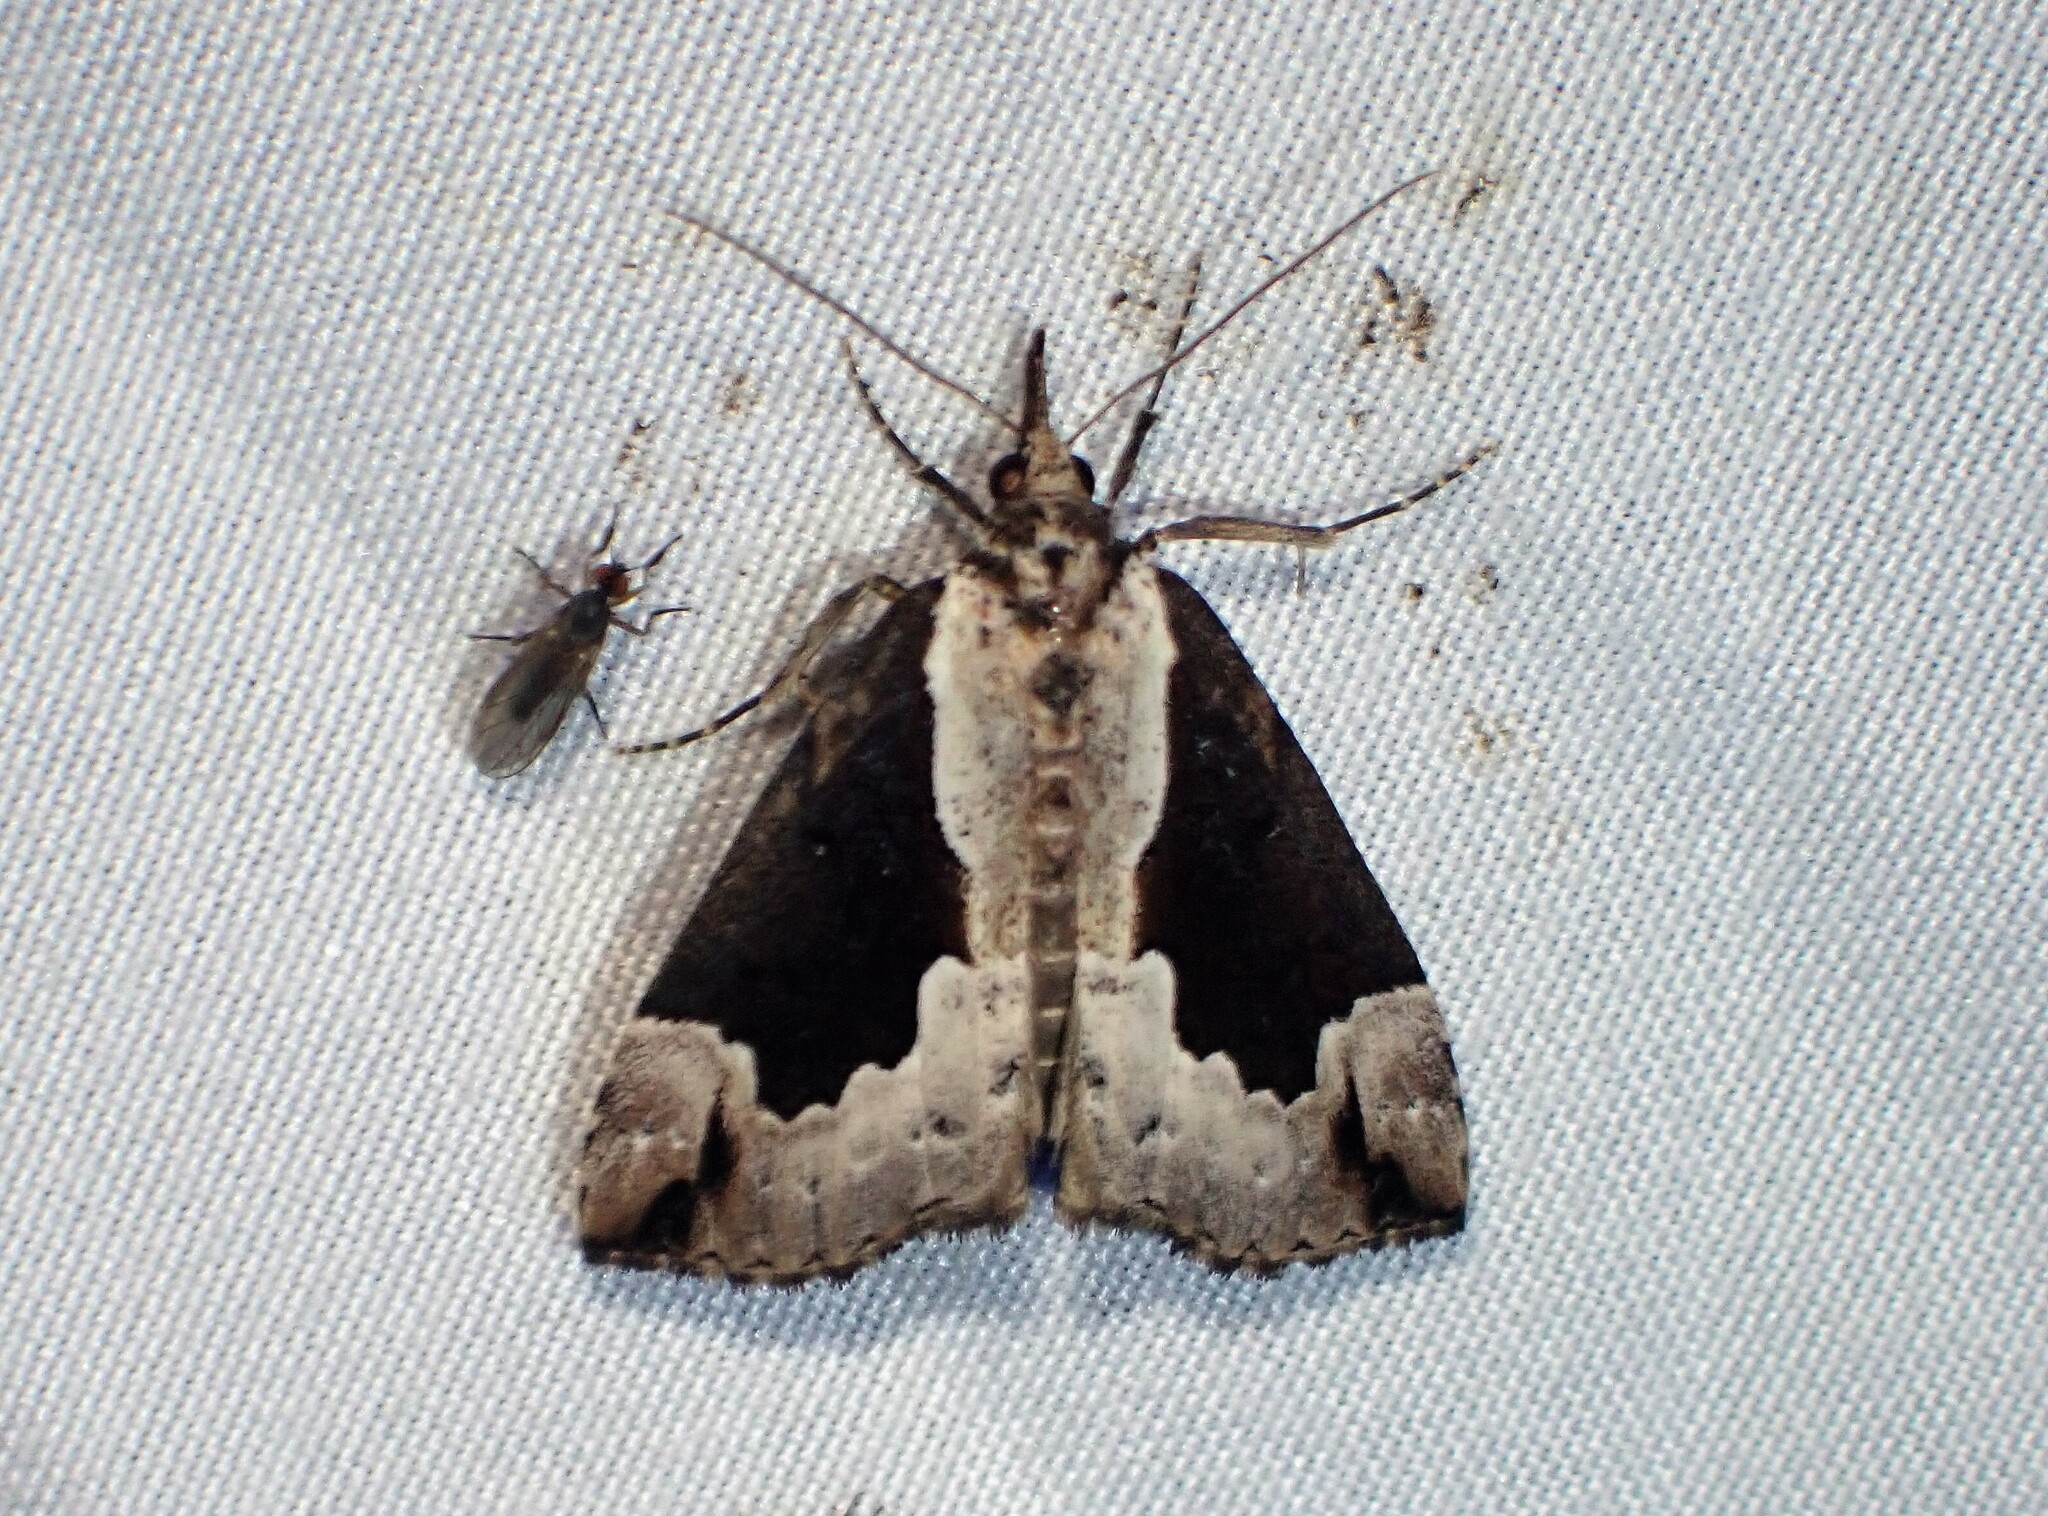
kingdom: Animalia
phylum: Arthropoda
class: Insecta
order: Lepidoptera
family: Erebidae
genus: Hypena
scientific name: Hypena baltimoralis
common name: Baltimore snout
